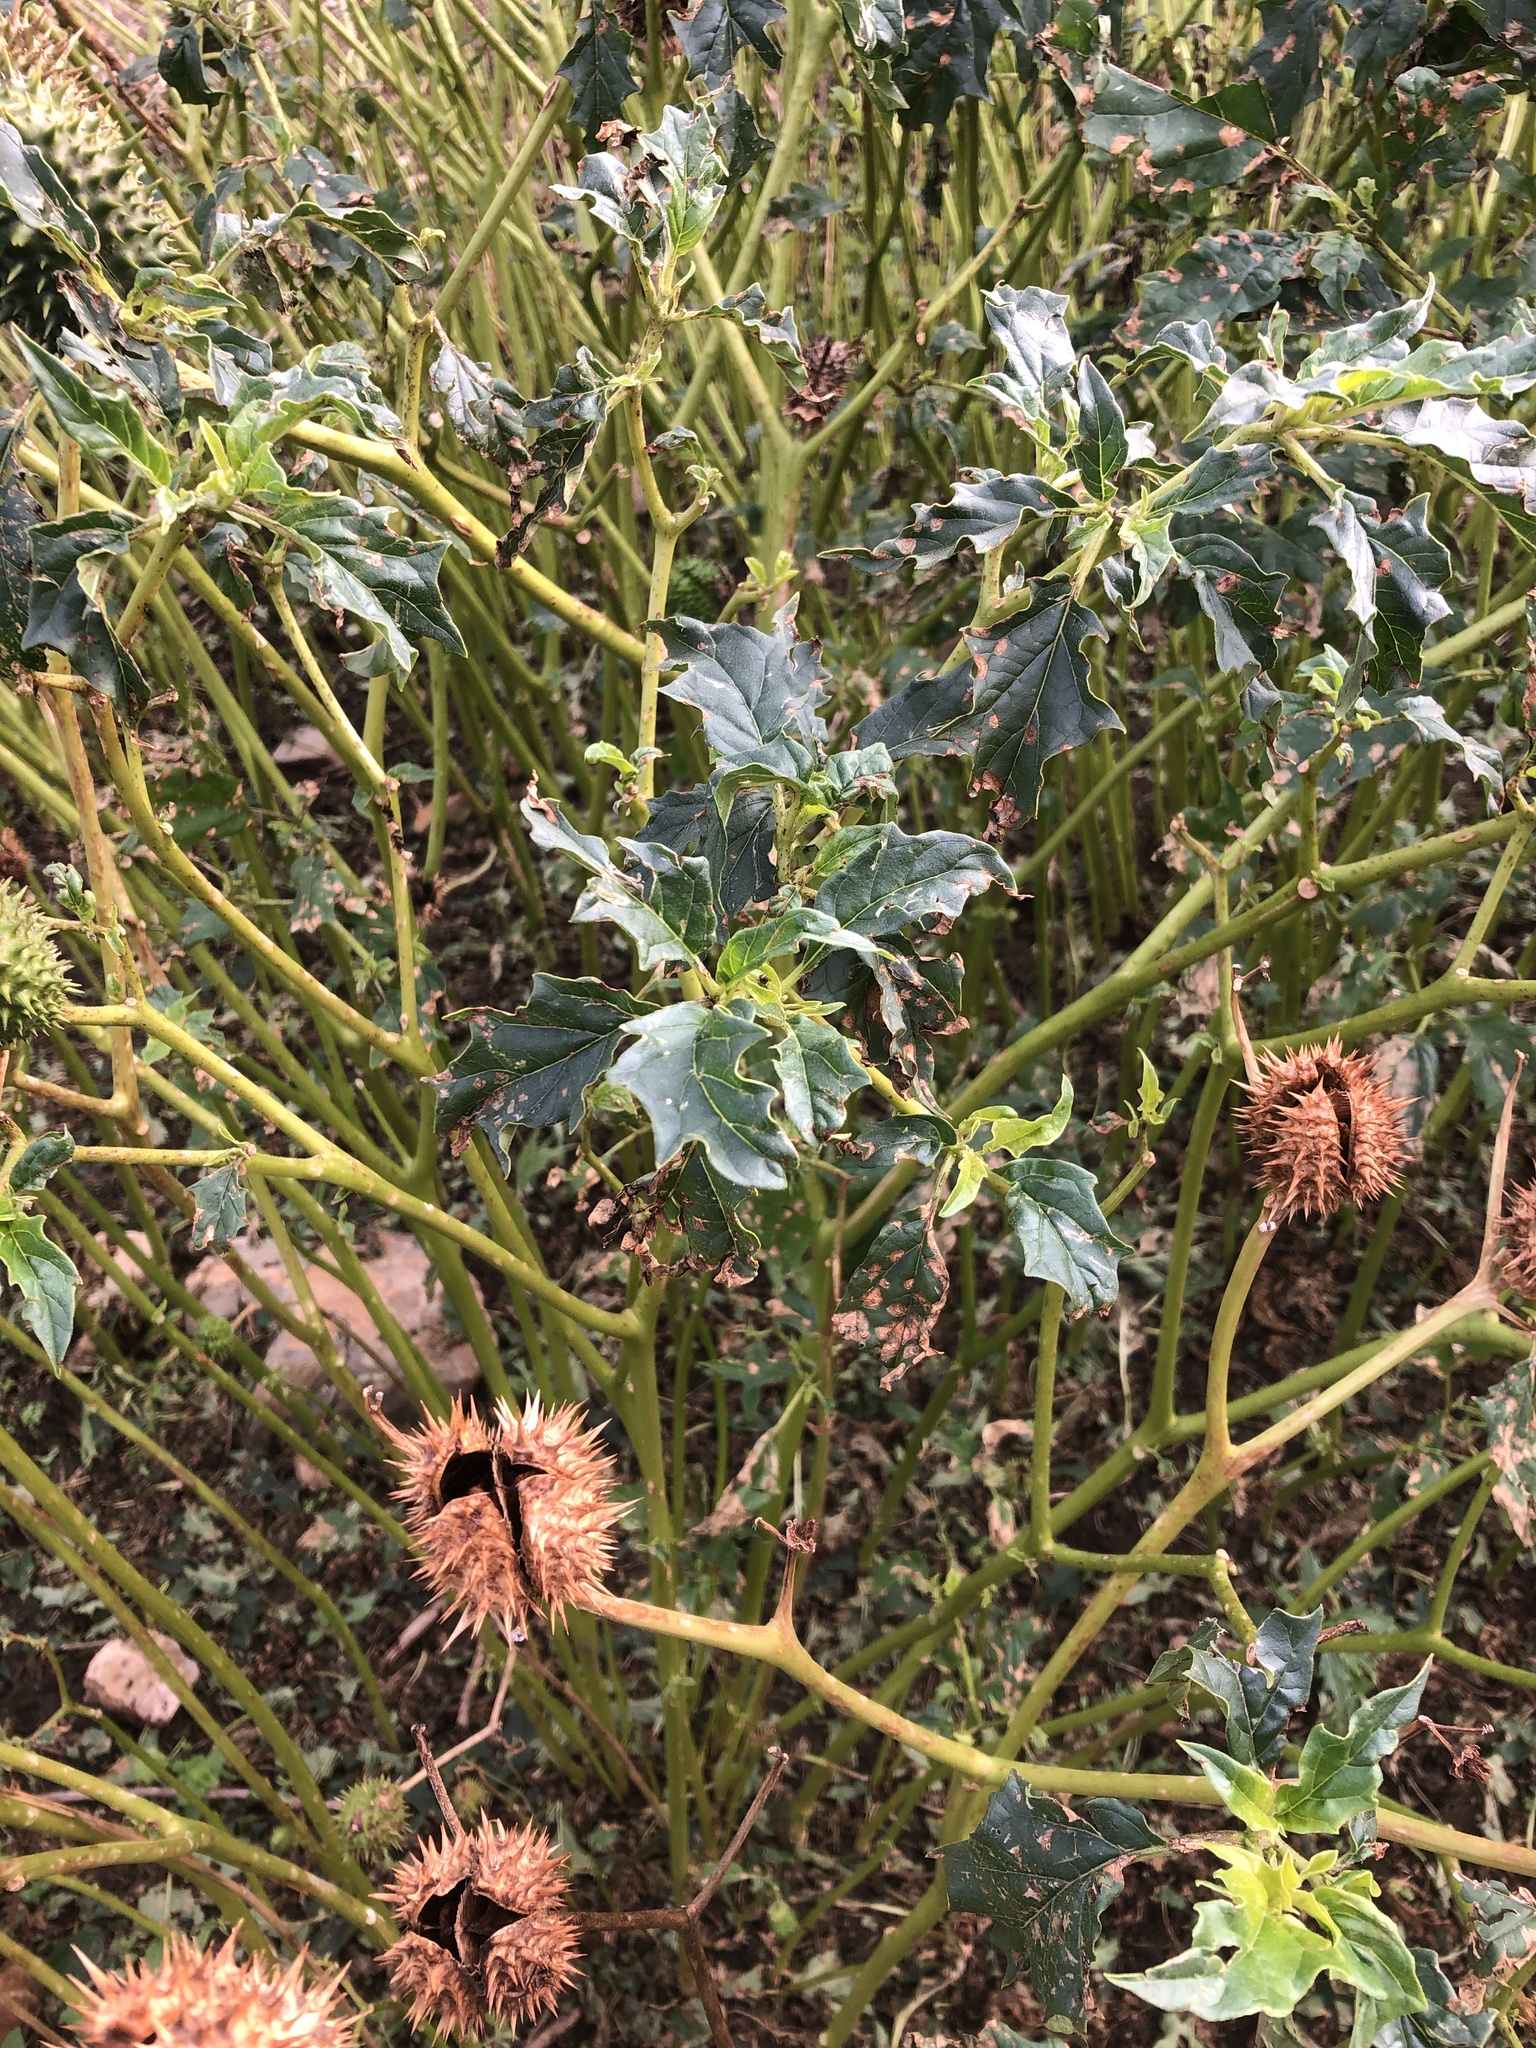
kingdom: Plantae
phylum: Tracheophyta
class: Magnoliopsida
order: Solanales
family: Solanaceae
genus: Datura
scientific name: Datura stramonium
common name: Thorn-apple
